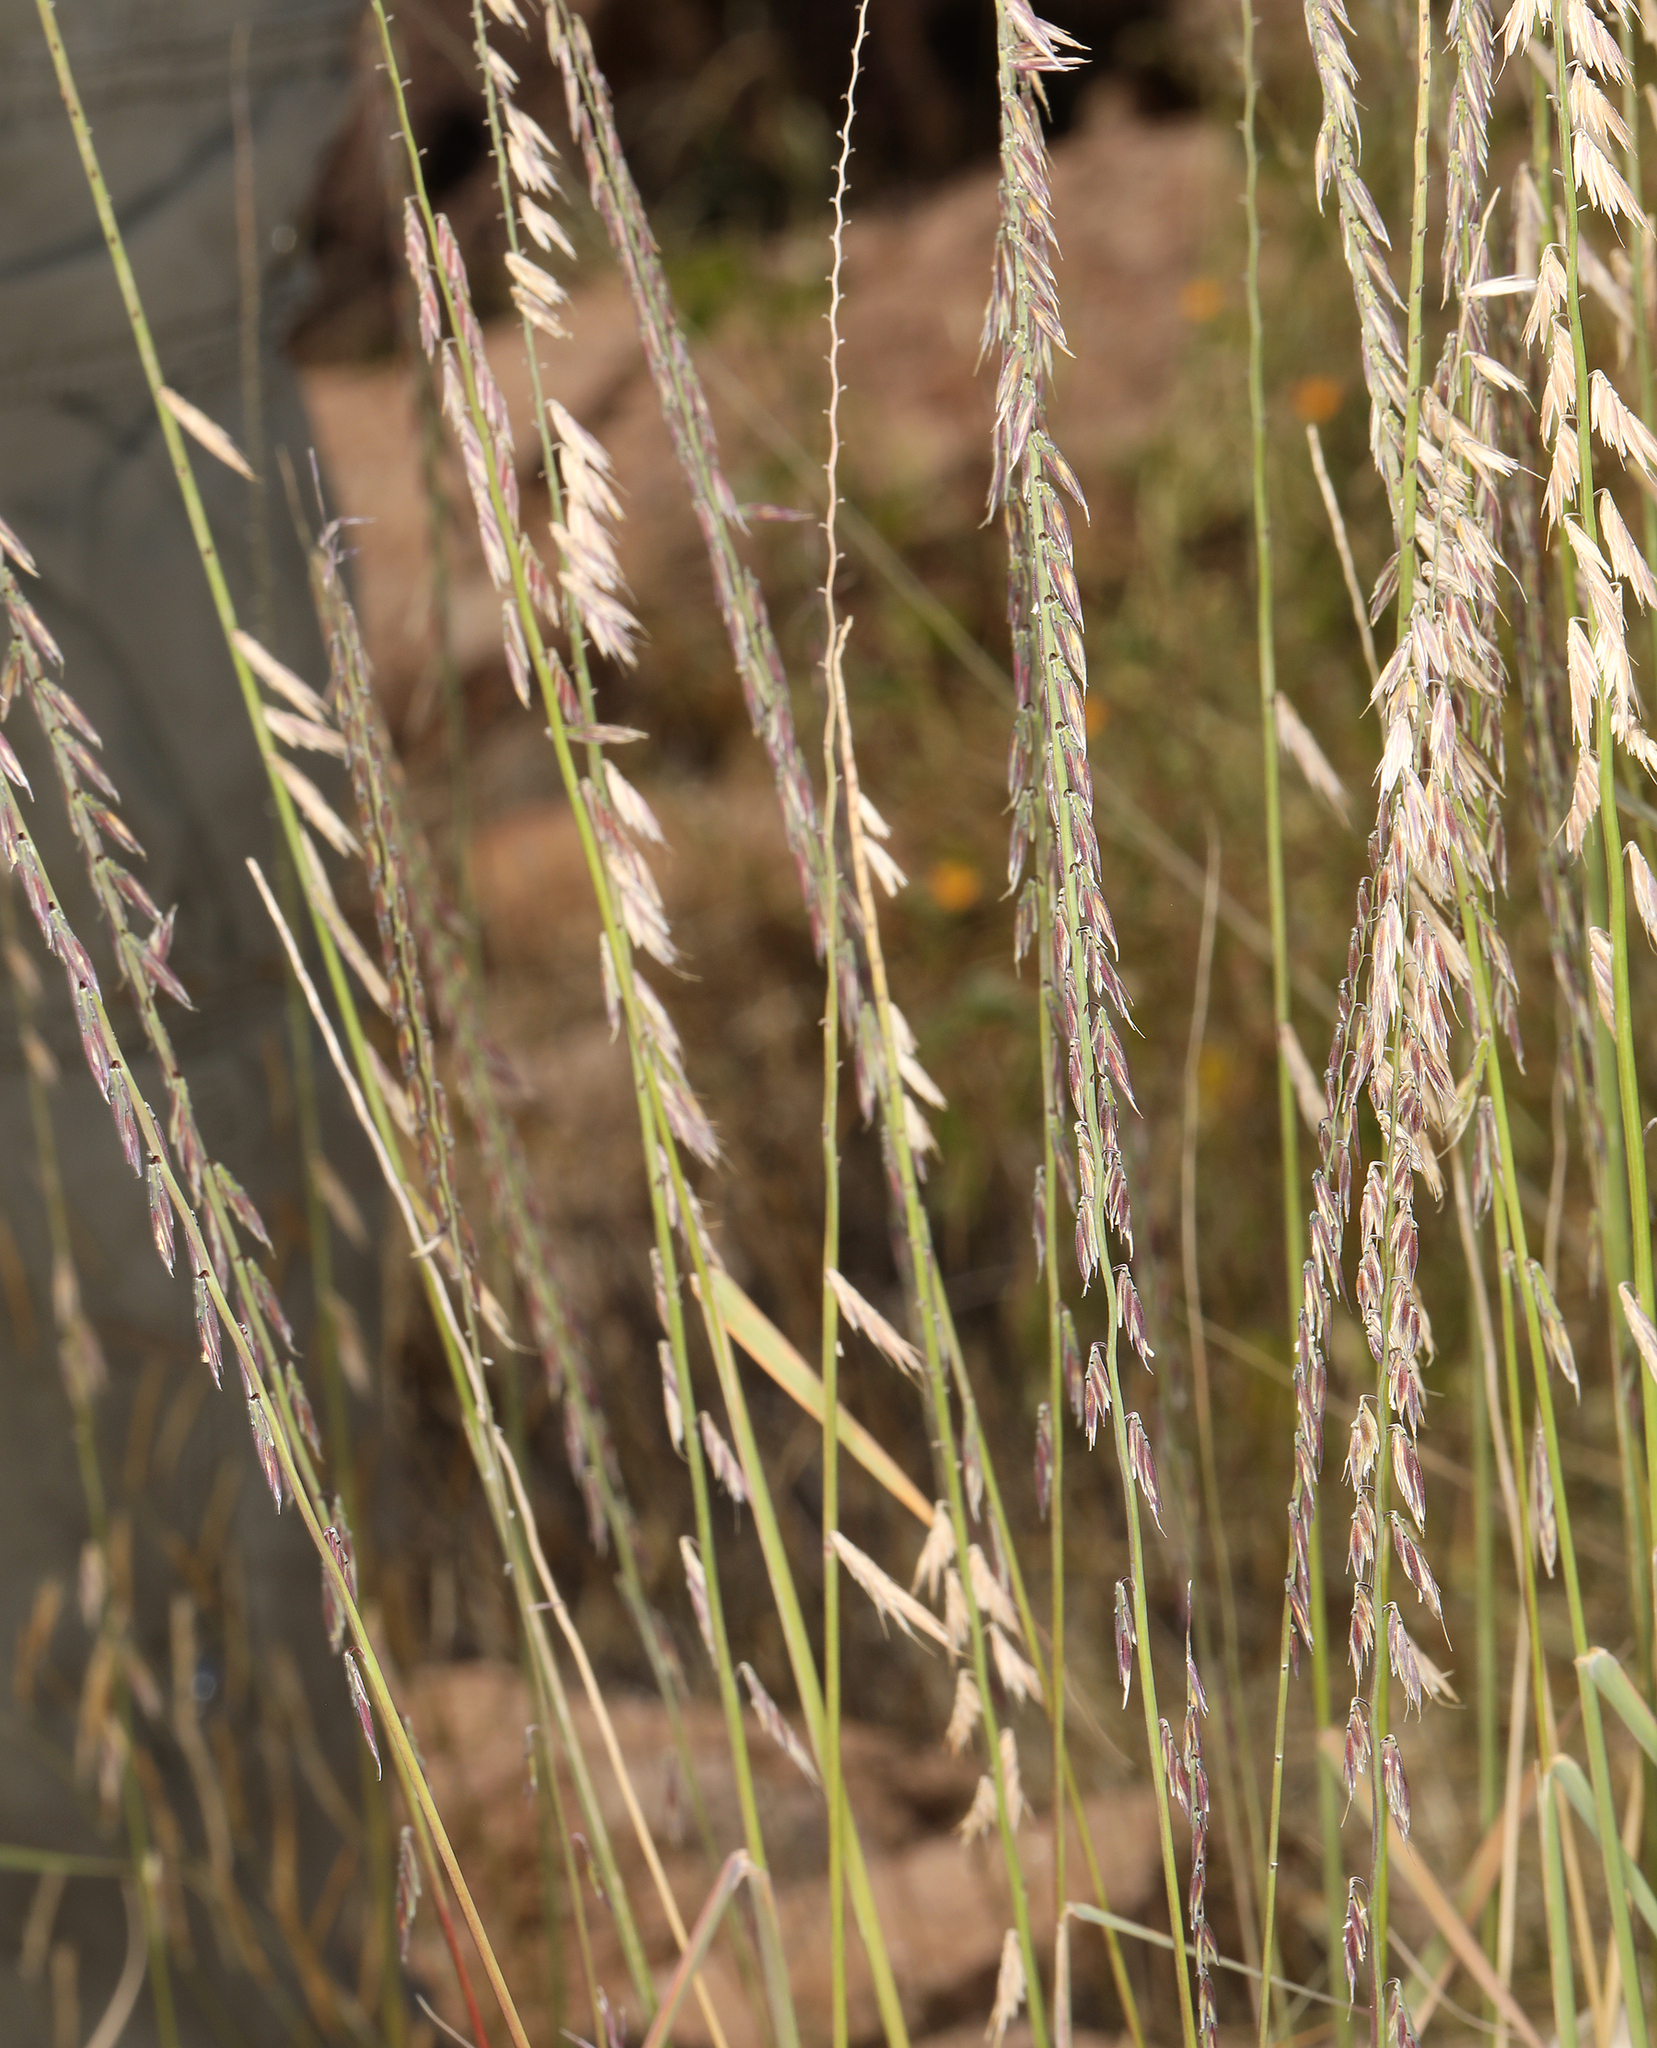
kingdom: Plantae
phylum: Tracheophyta
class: Liliopsida
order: Poales
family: Poaceae
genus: Bouteloua
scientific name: Bouteloua curtipendula
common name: Side-oats grama
